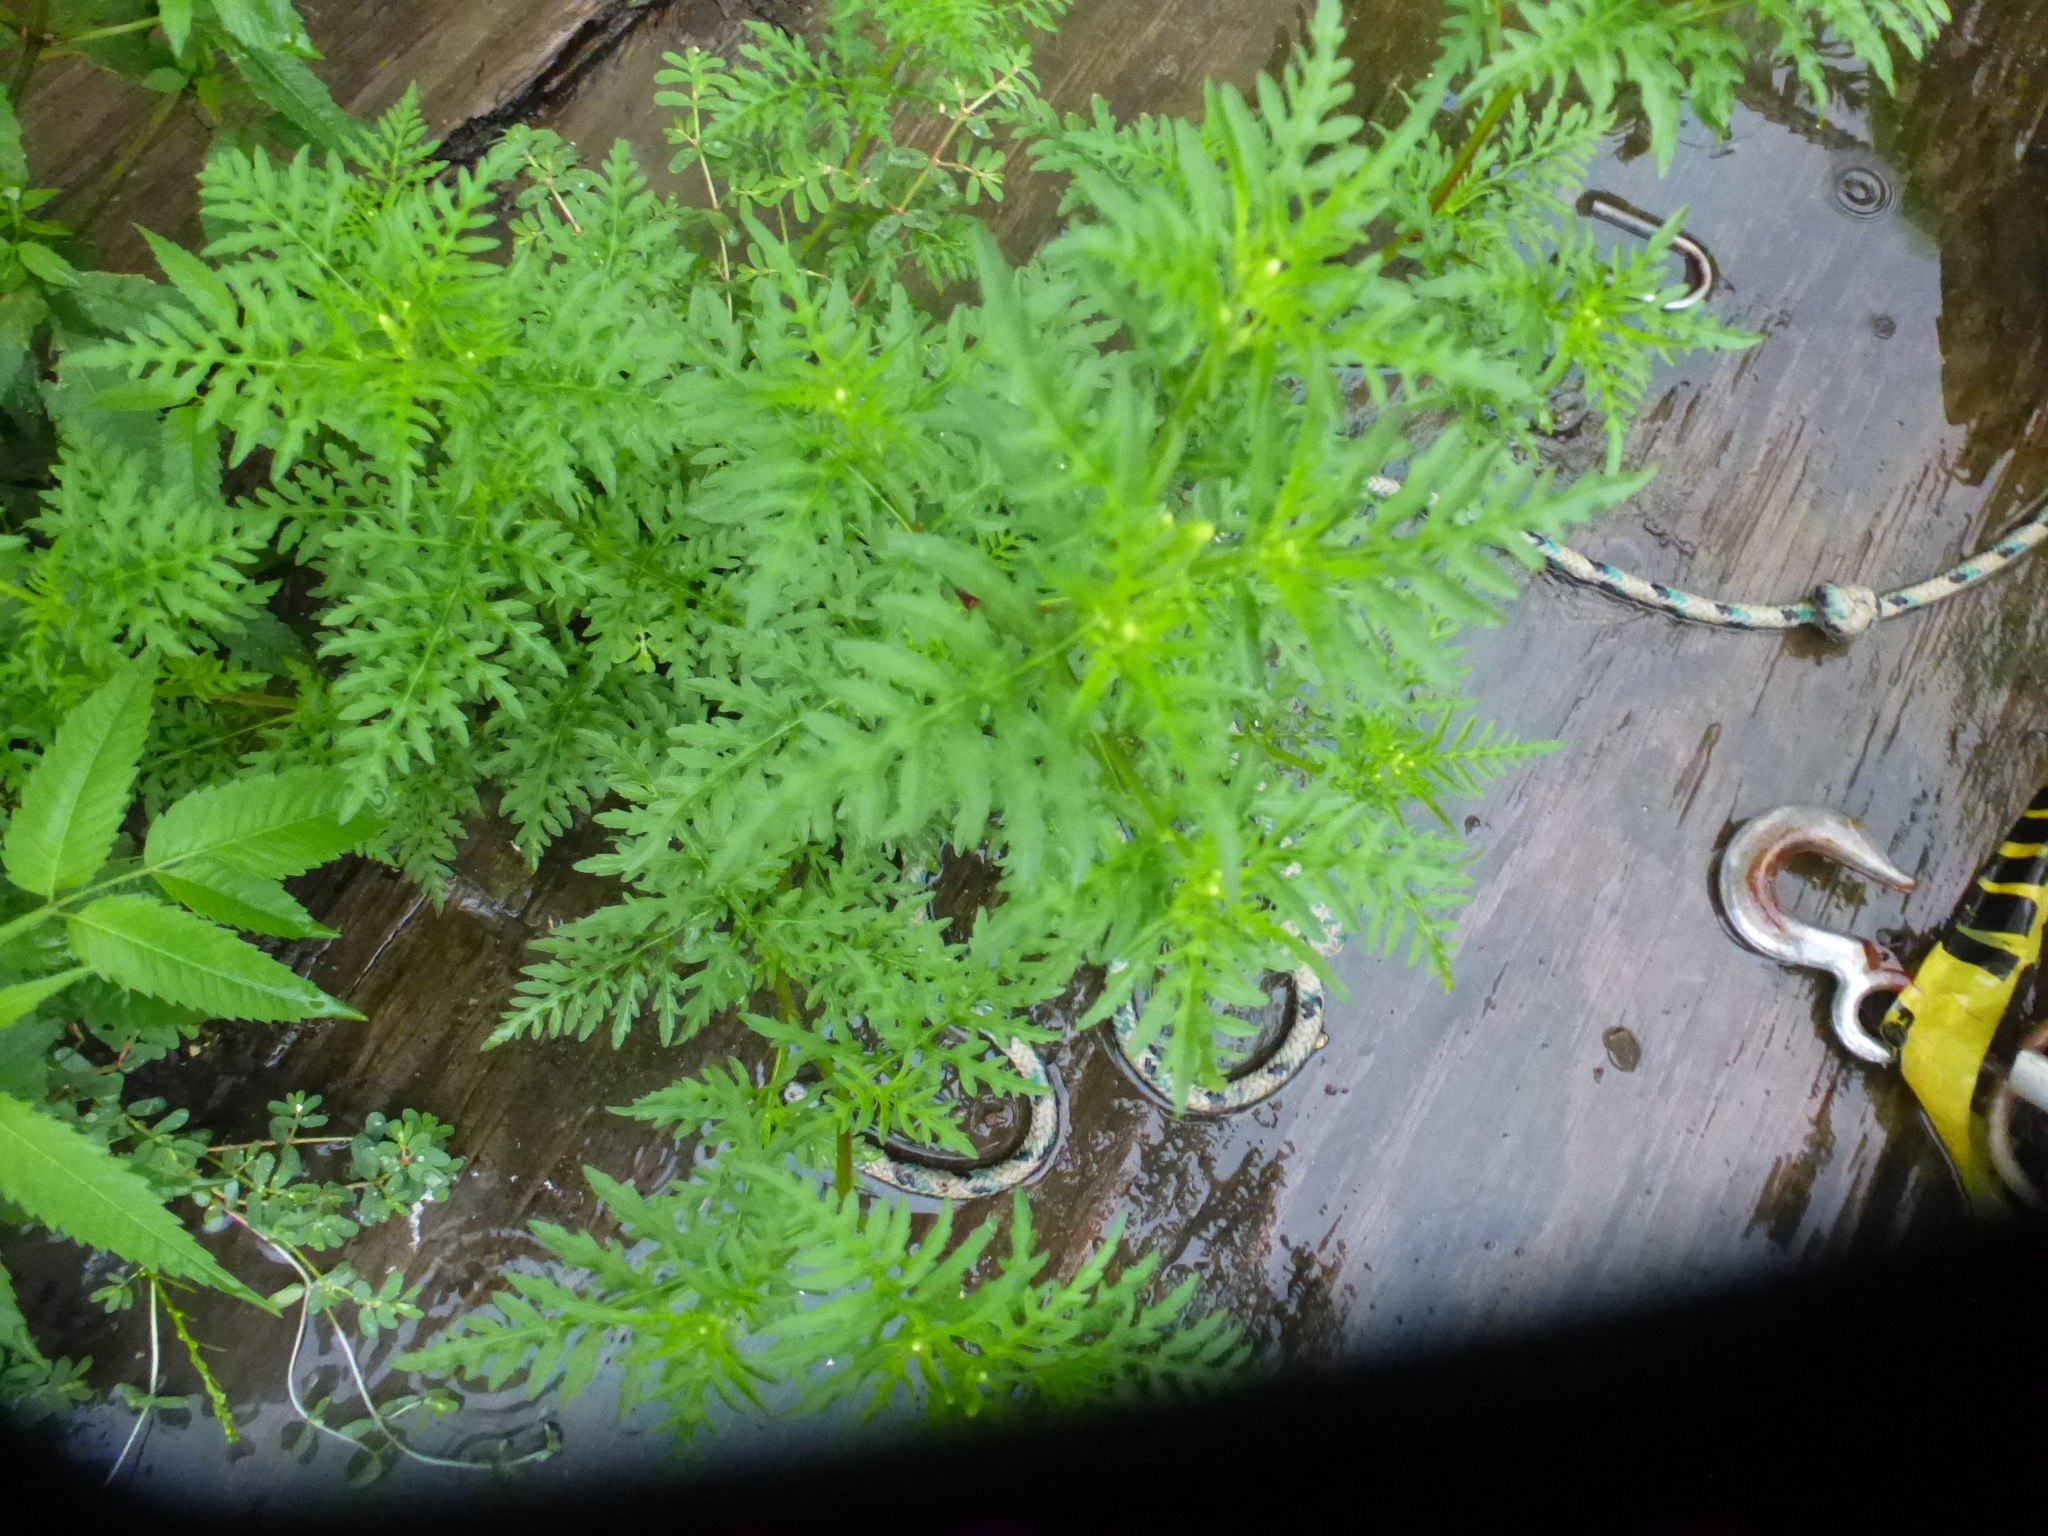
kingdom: Plantae
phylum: Tracheophyta
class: Magnoliopsida
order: Asterales
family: Asteraceae
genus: Ambrosia
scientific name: Ambrosia artemisiifolia
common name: Annual ragweed
